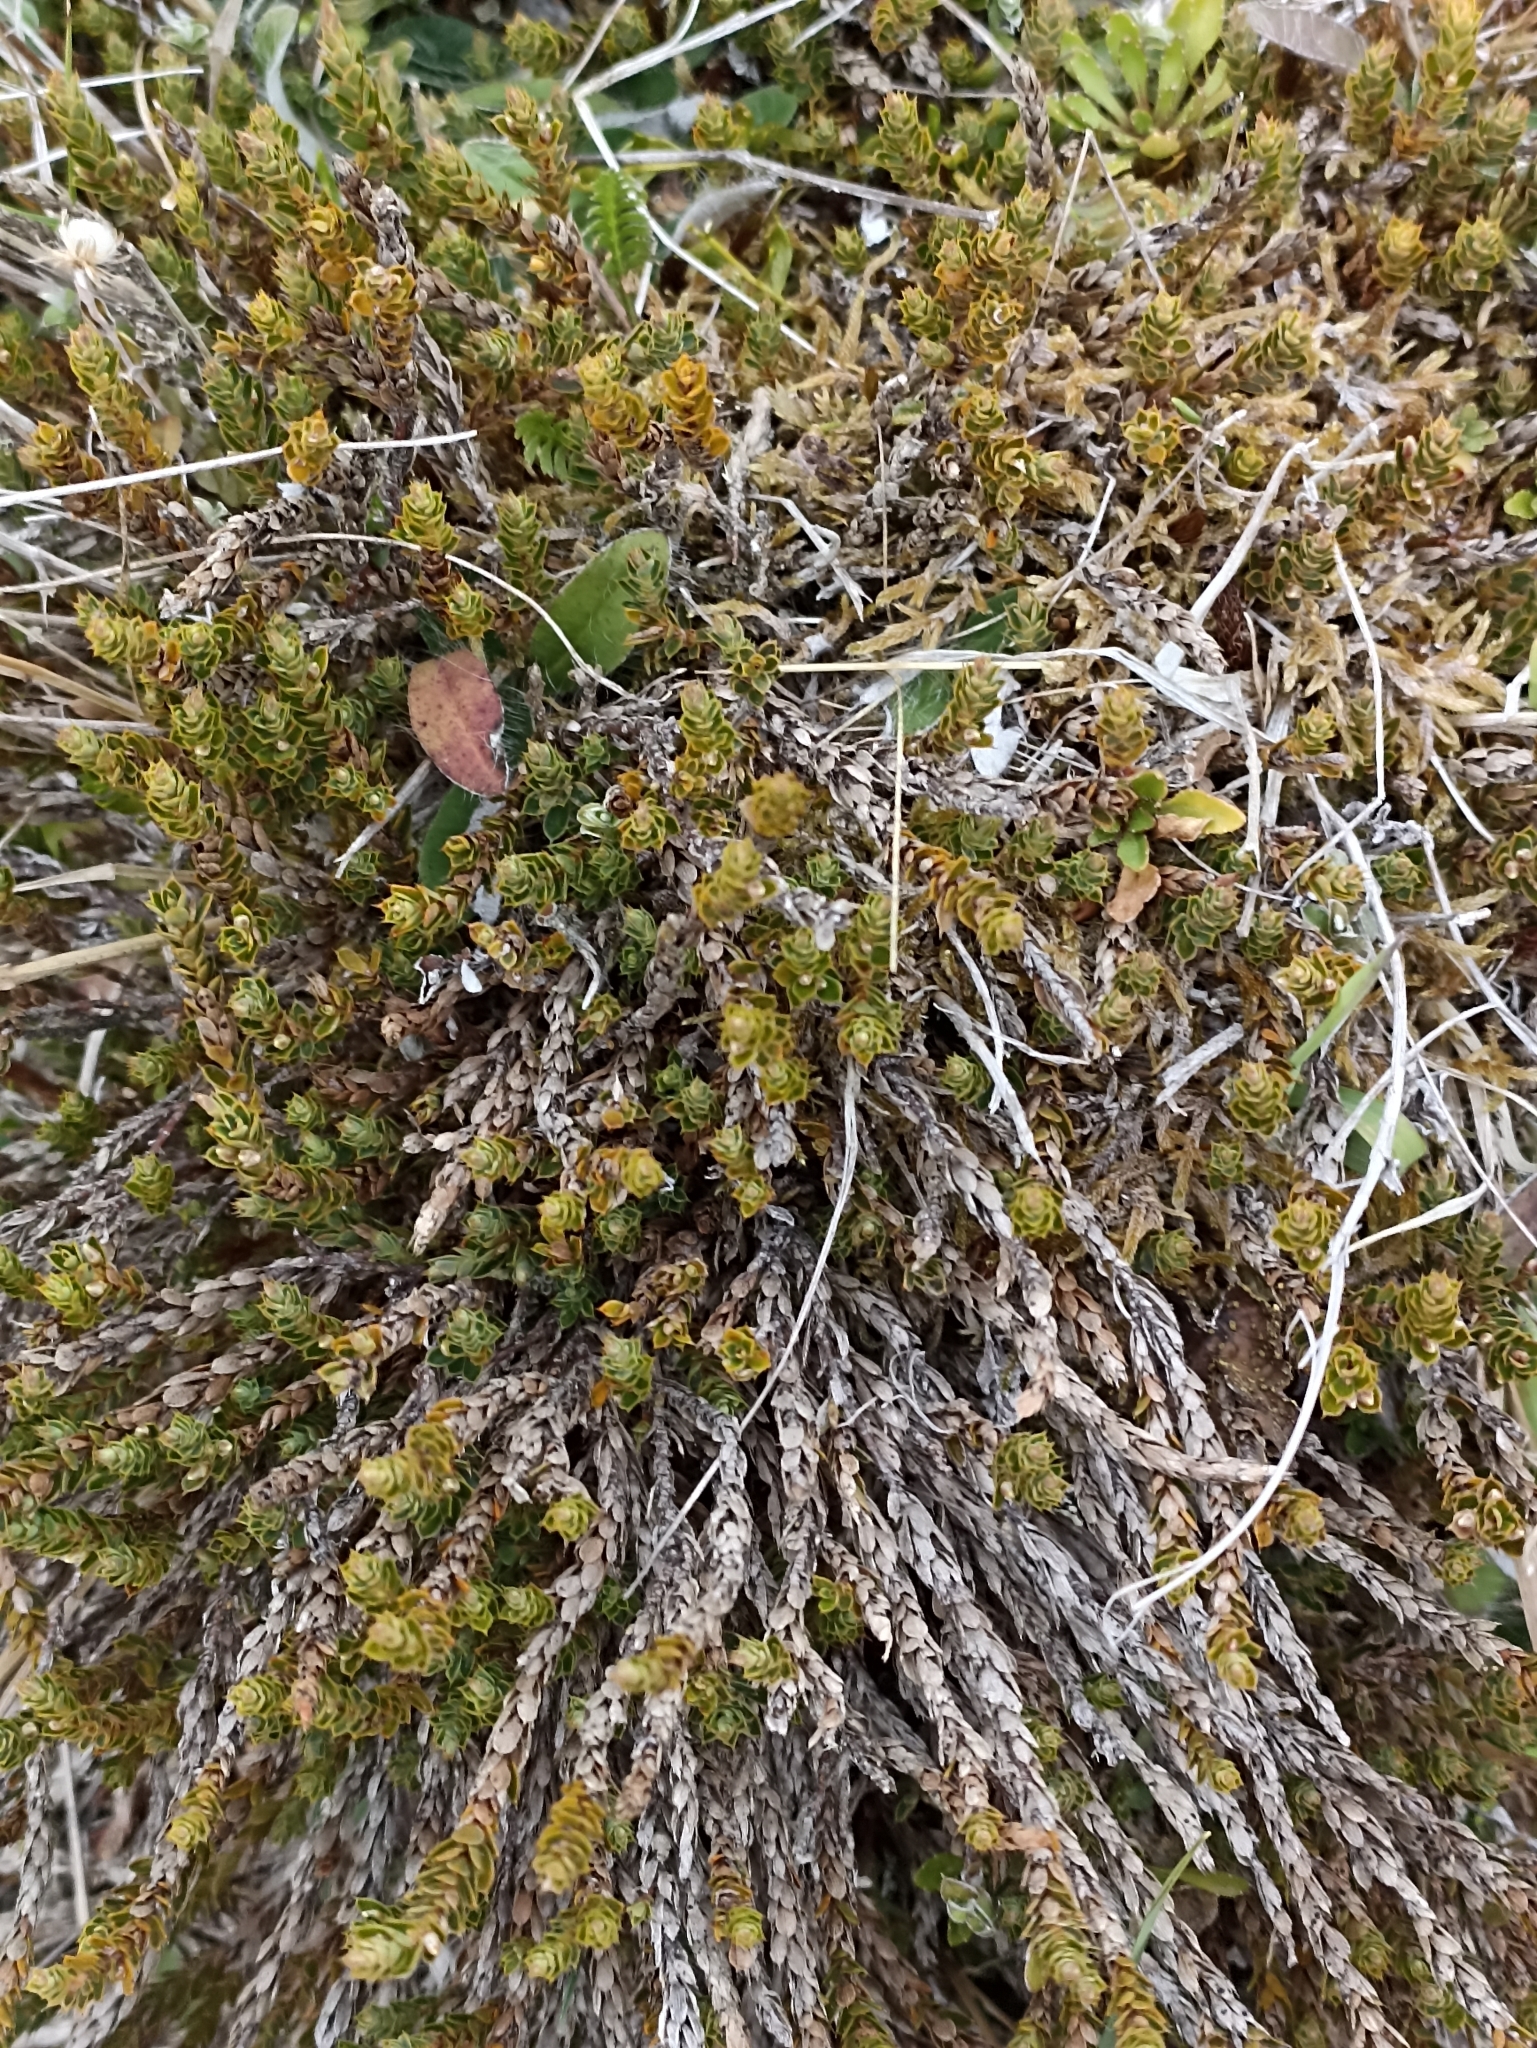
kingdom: Plantae
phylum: Tracheophyta
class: Magnoliopsida
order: Ericales
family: Ericaceae
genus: Styphelia
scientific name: Styphelia nesophila
